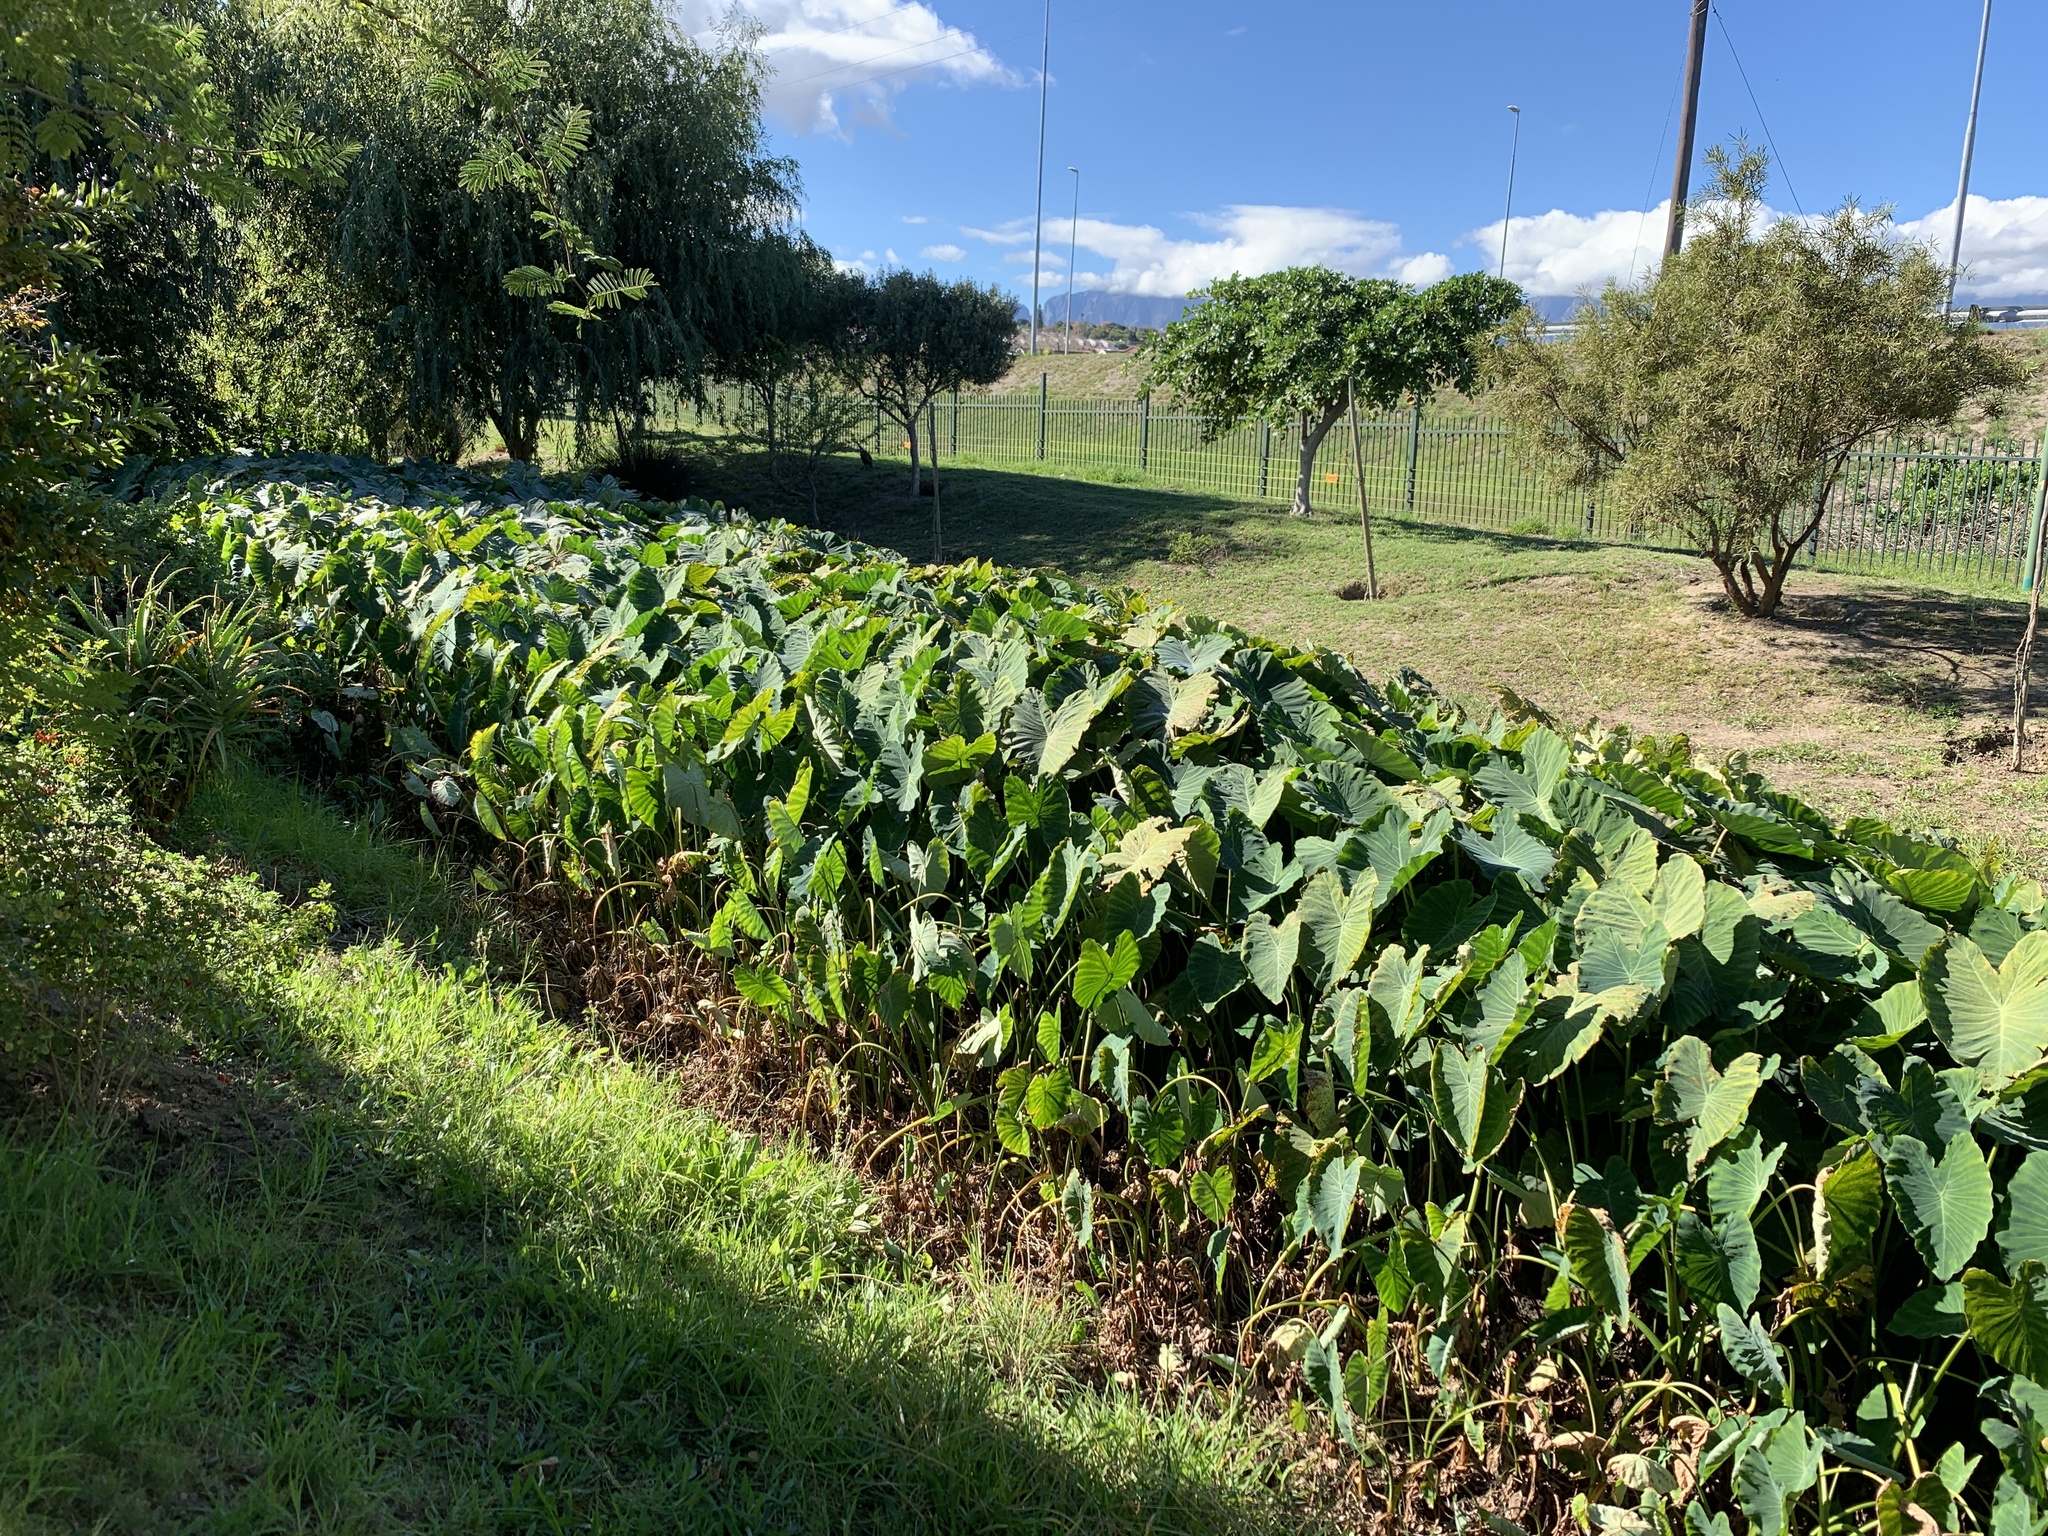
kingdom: Plantae
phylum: Tracheophyta
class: Liliopsida
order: Alismatales
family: Araceae
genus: Colocasia
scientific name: Colocasia esculenta
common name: Taro
